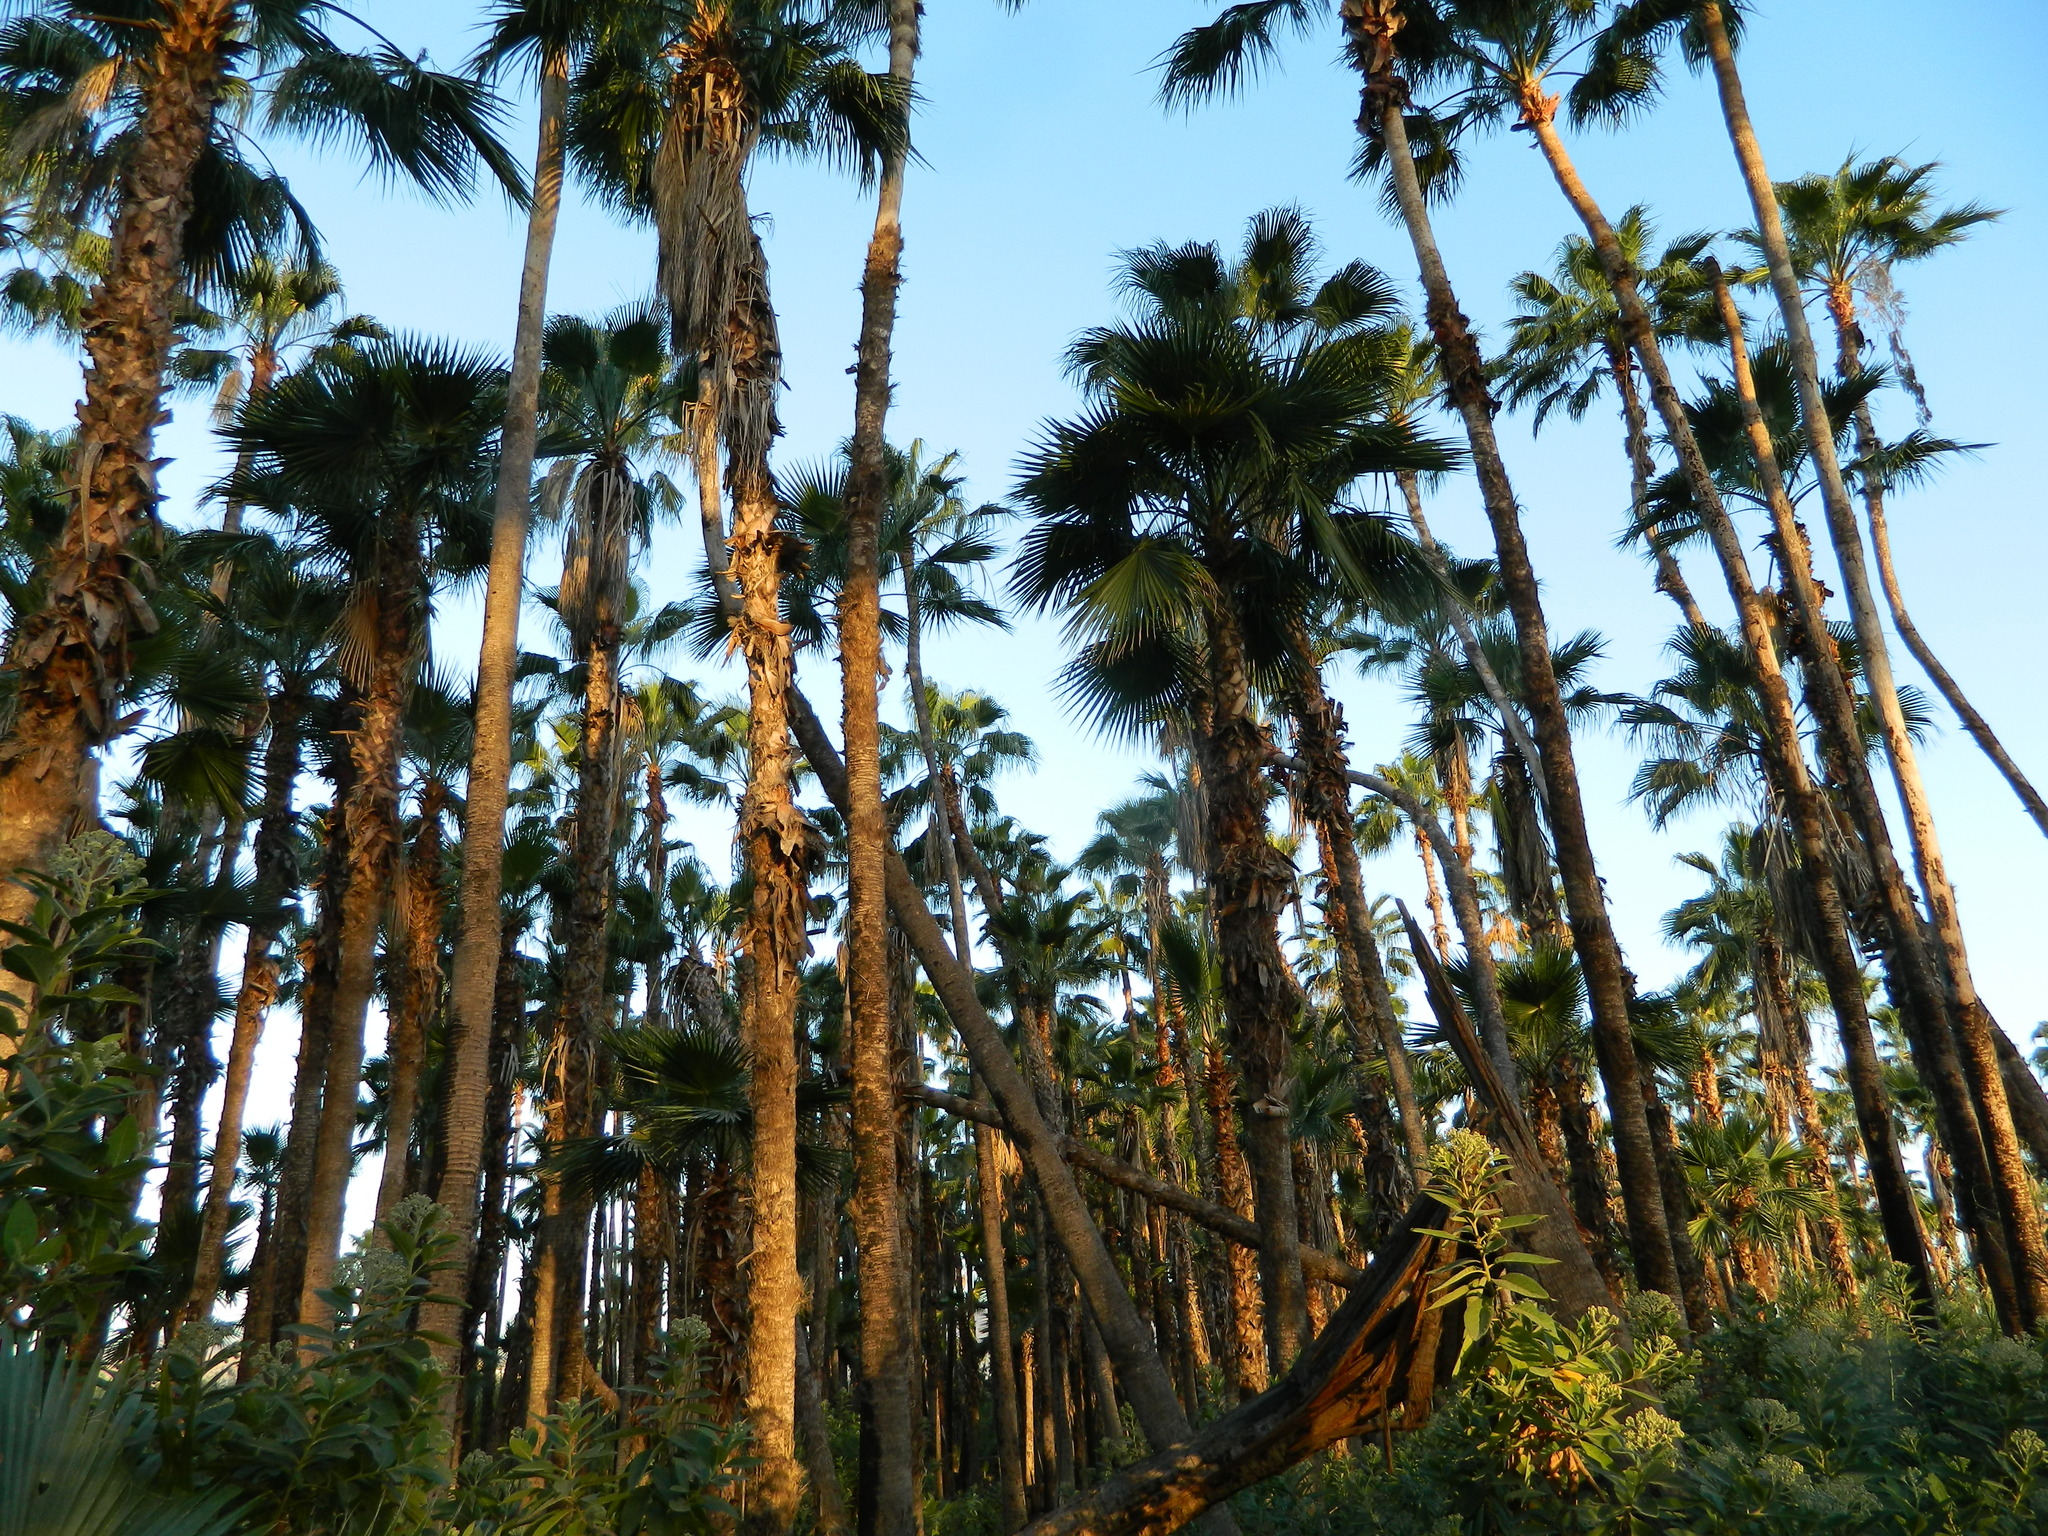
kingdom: Plantae
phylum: Tracheophyta
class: Liliopsida
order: Arecales
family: Arecaceae
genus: Washingtonia
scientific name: Washingtonia robusta
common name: Mexican fan palm
